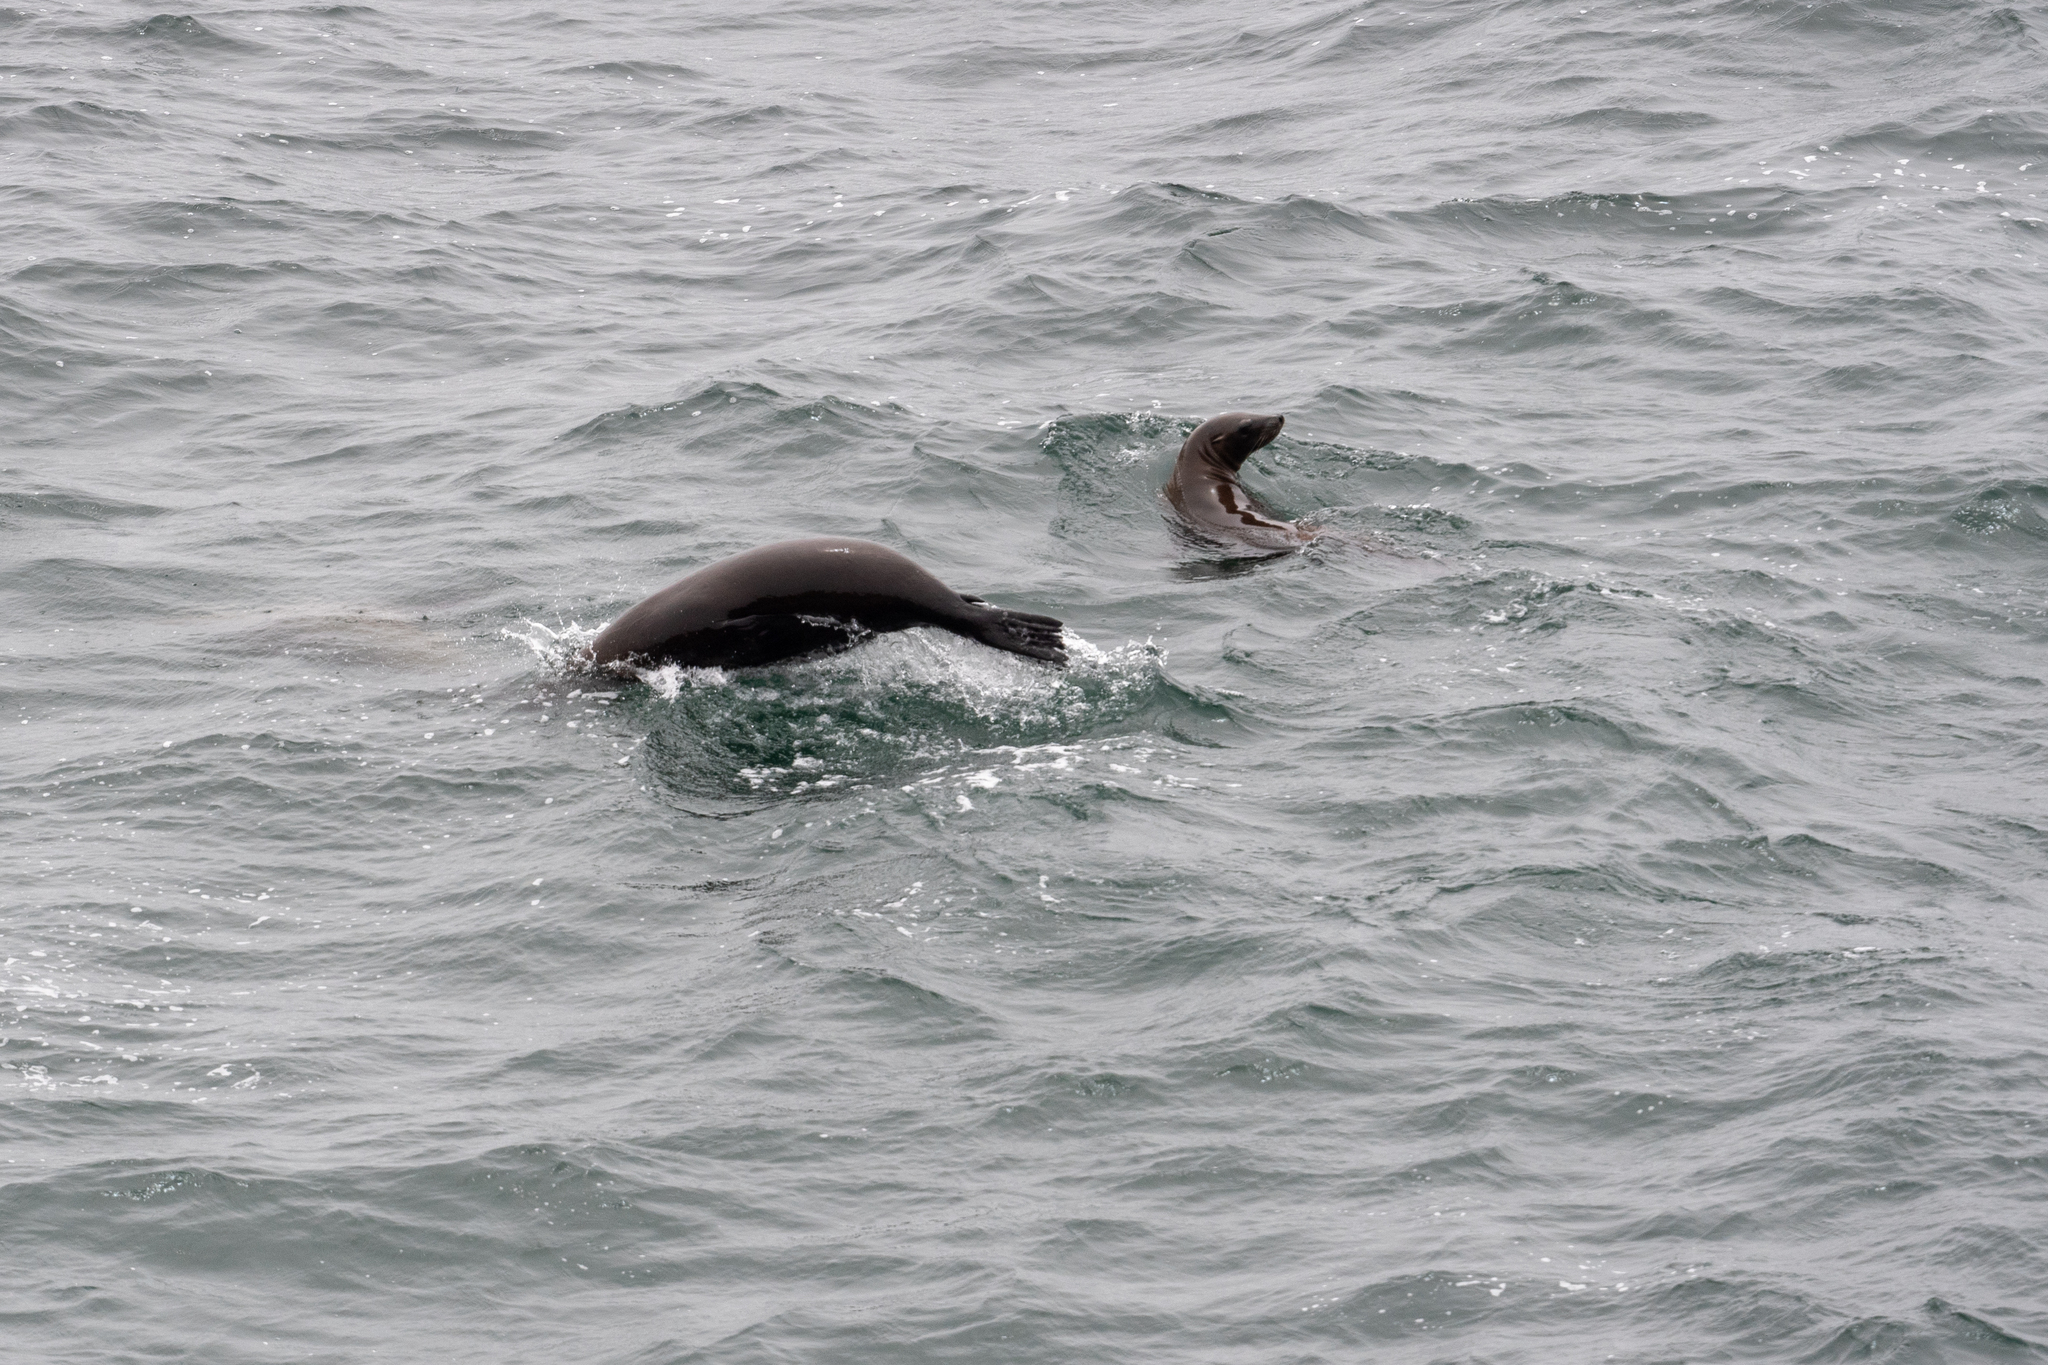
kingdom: Animalia
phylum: Chordata
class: Mammalia
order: Carnivora
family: Otariidae
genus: Zalophus
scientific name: Zalophus californianus
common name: California sea lion
